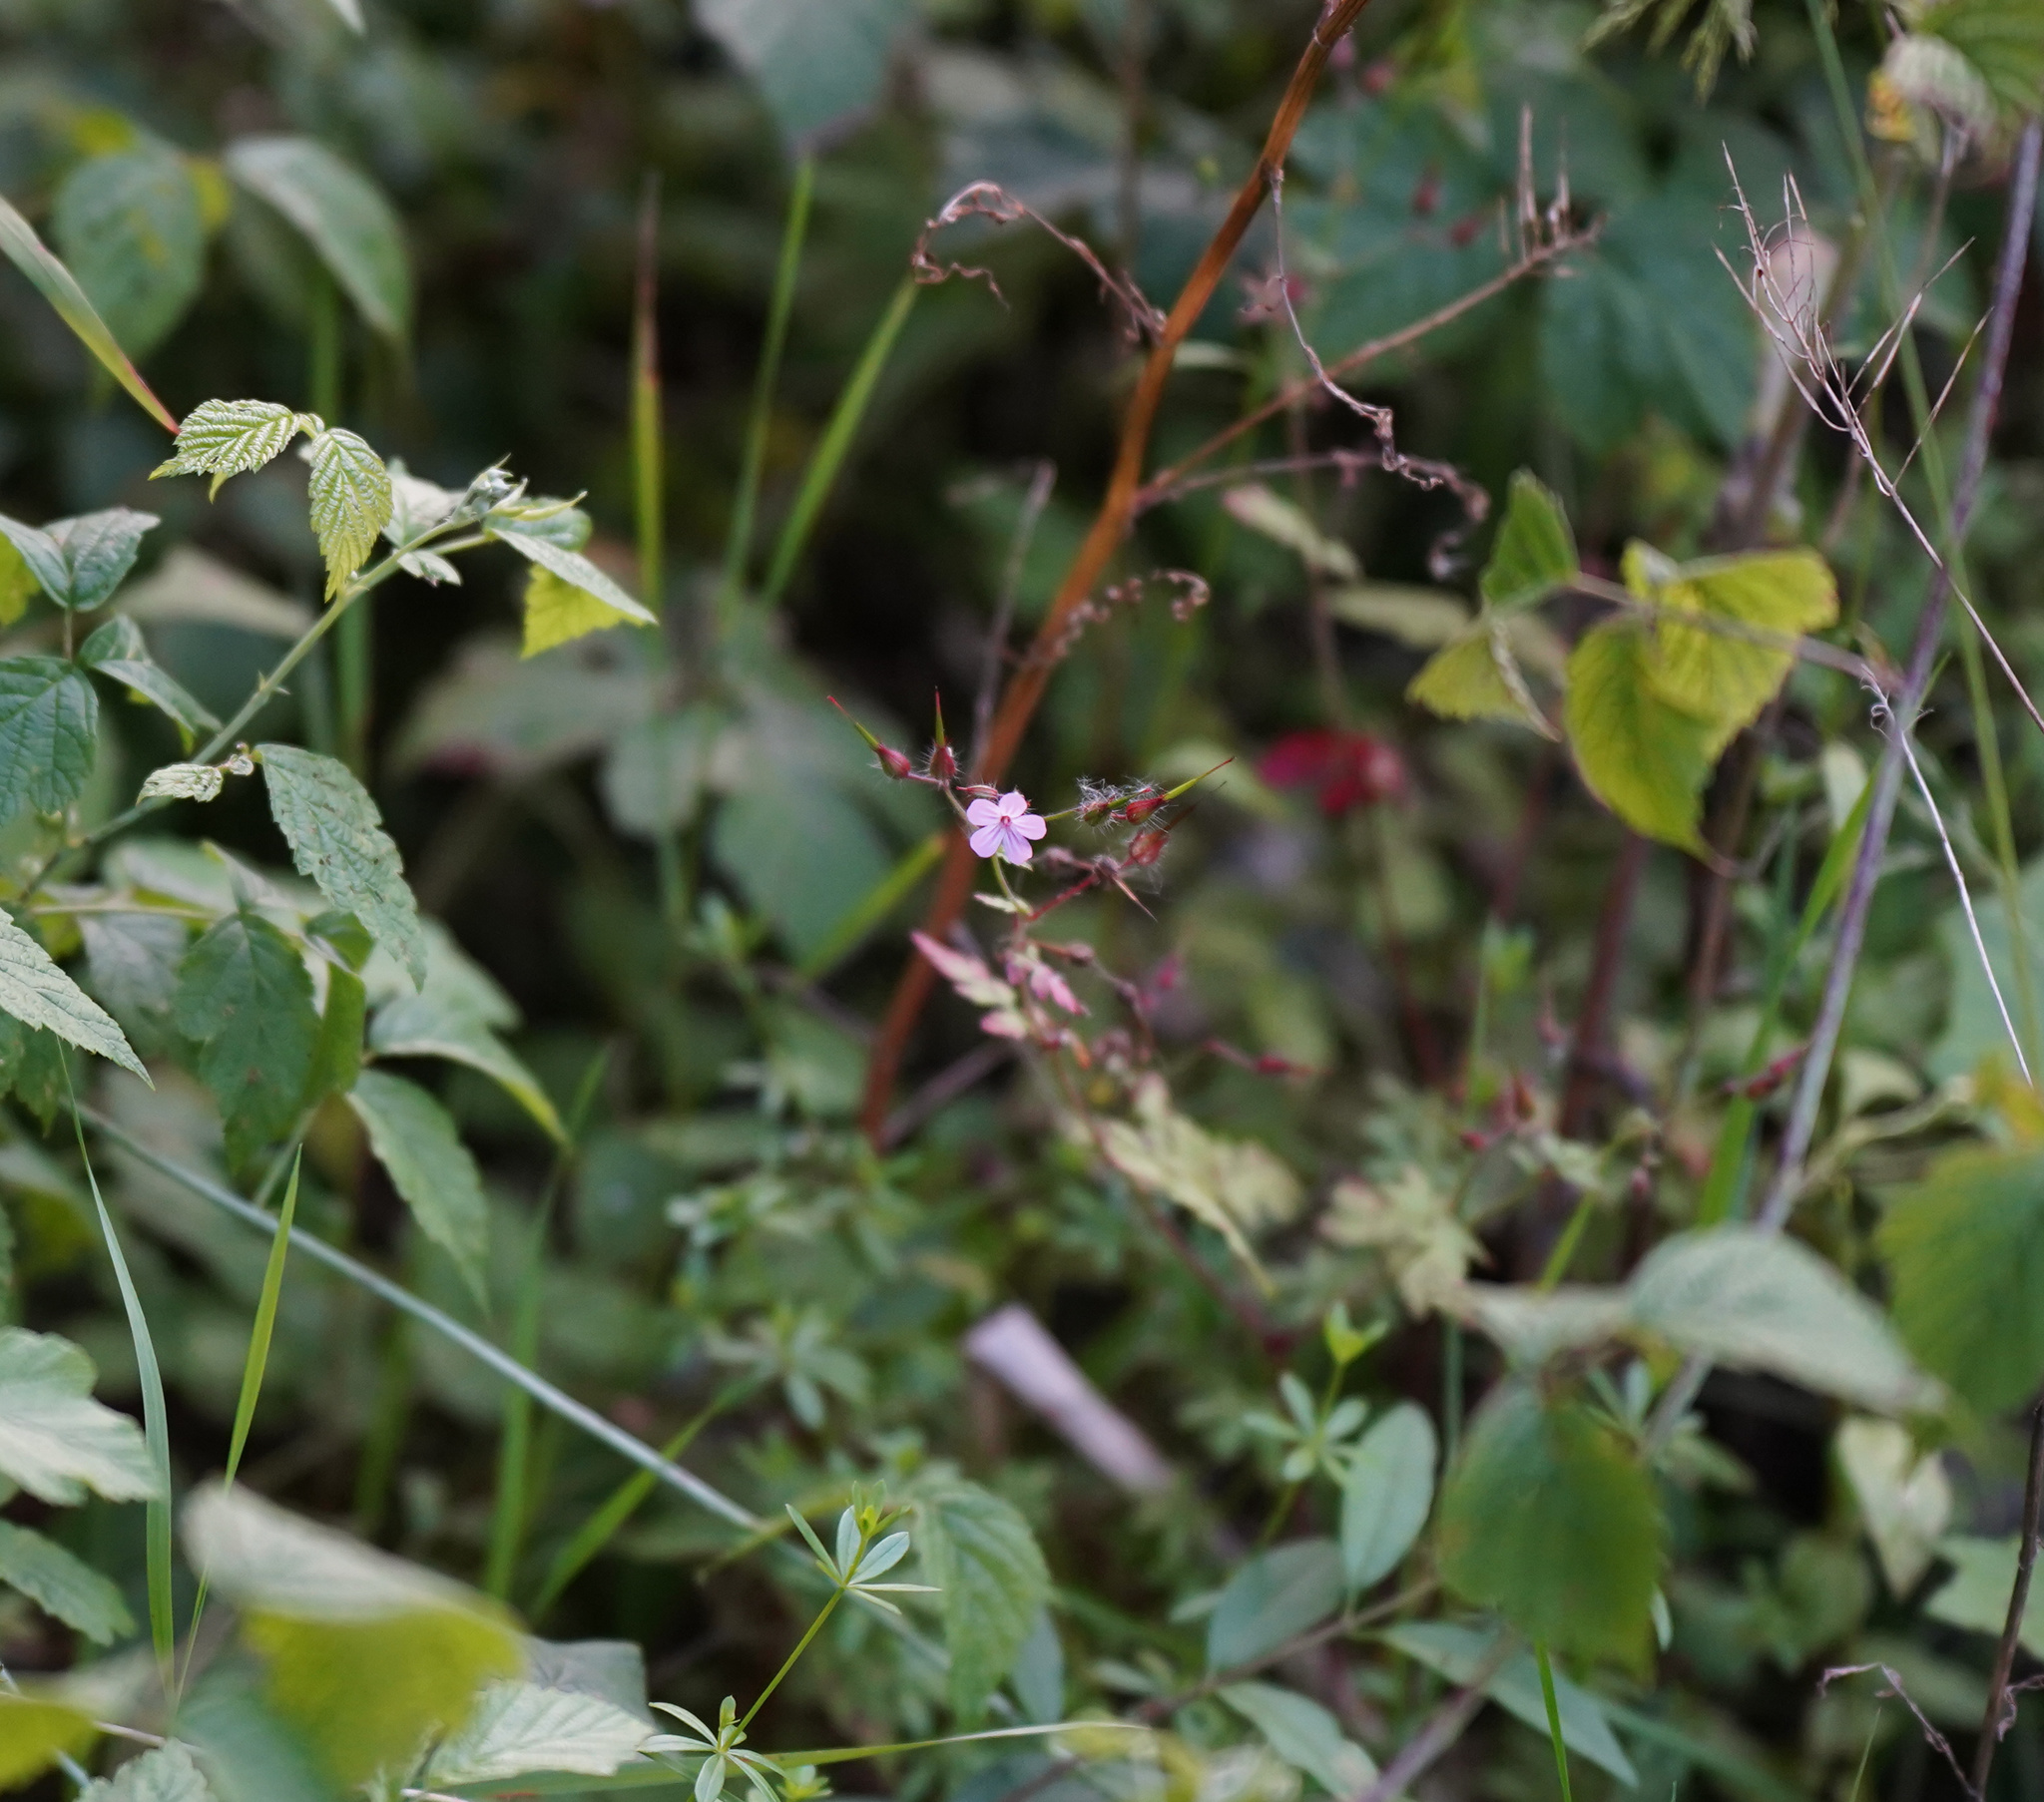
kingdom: Plantae
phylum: Tracheophyta
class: Magnoliopsida
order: Geraniales
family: Geraniaceae
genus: Geranium
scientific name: Geranium robertianum
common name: Herb-robert
